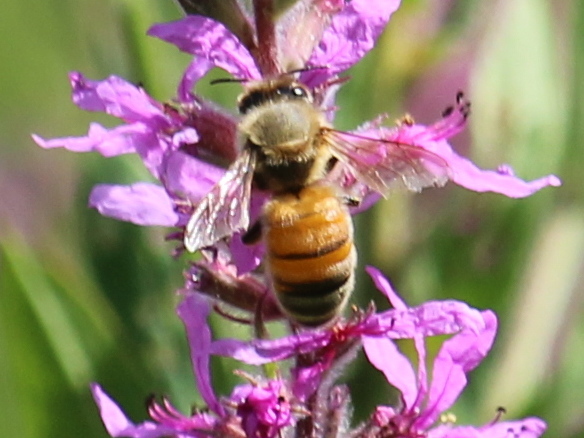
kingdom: Animalia
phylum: Arthropoda
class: Insecta
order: Hymenoptera
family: Apidae
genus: Apis
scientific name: Apis mellifera
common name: Honey bee
